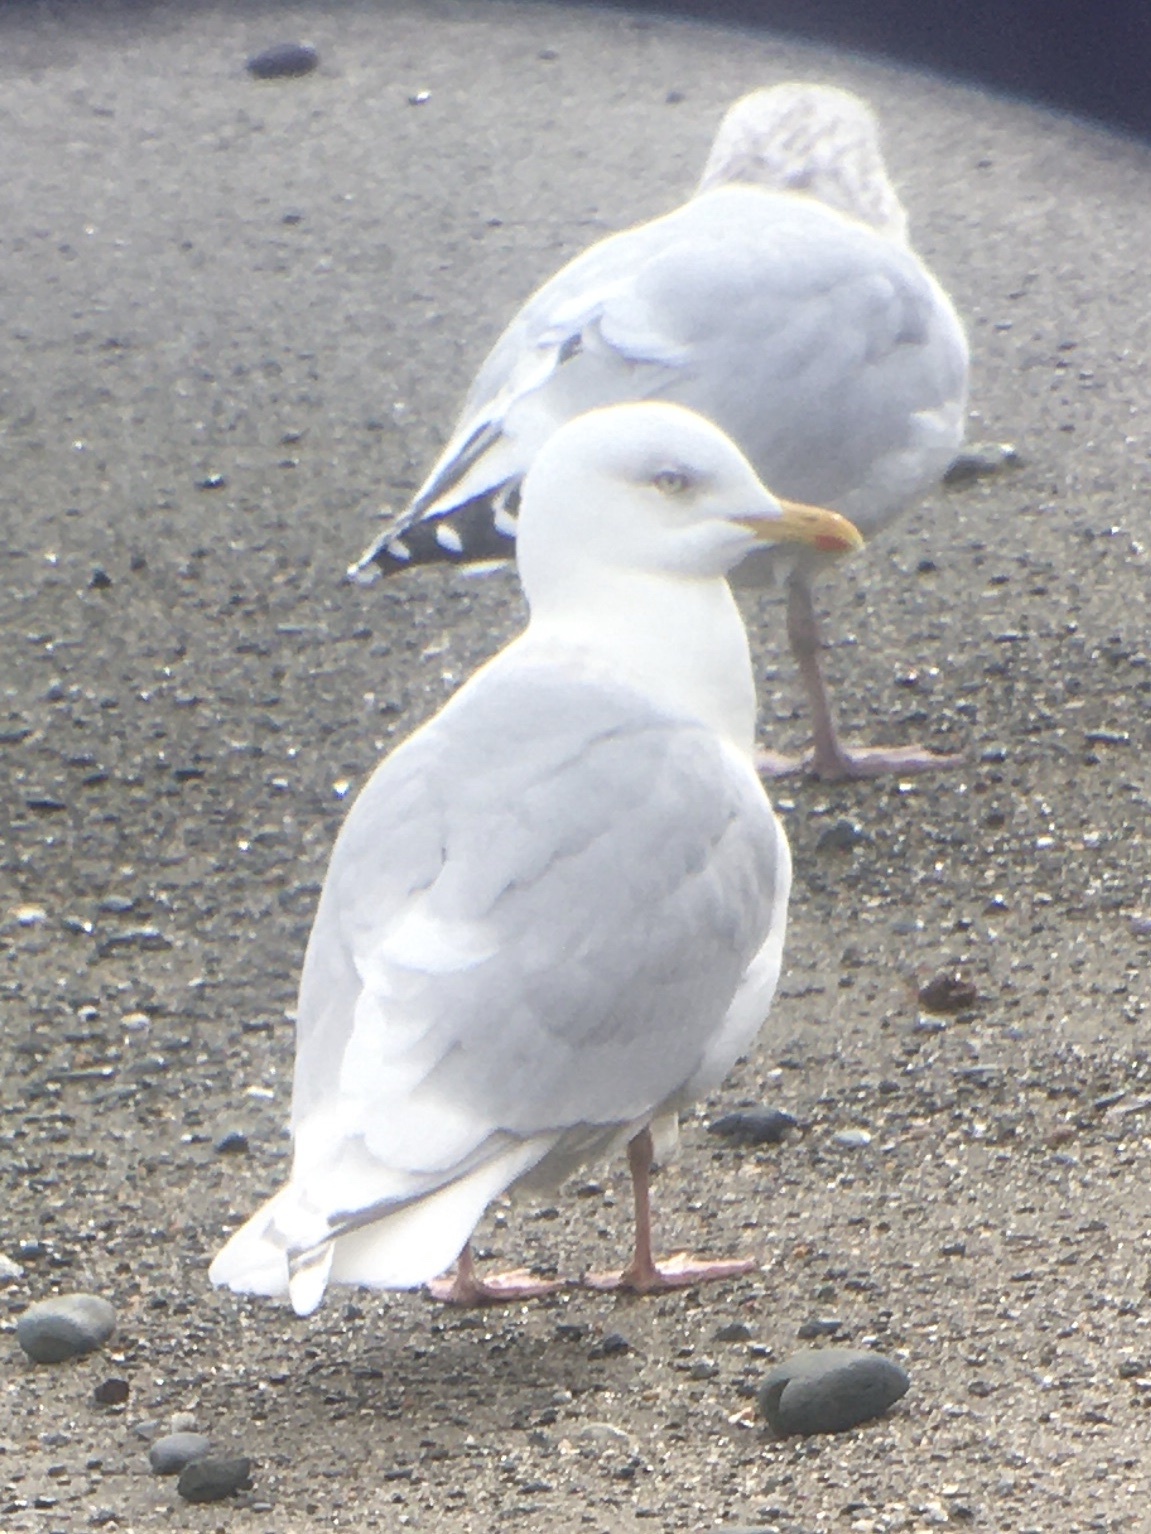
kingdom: Animalia
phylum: Chordata
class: Aves
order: Charadriiformes
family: Laridae
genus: Larus
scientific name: Larus glaucoides
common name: Iceland gull
